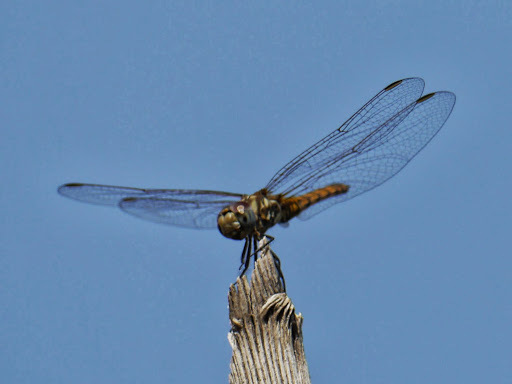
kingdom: Animalia
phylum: Arthropoda
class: Insecta
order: Odonata
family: Libellulidae
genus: Trithemis
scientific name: Trithemis annulata
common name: Violet dropwing
